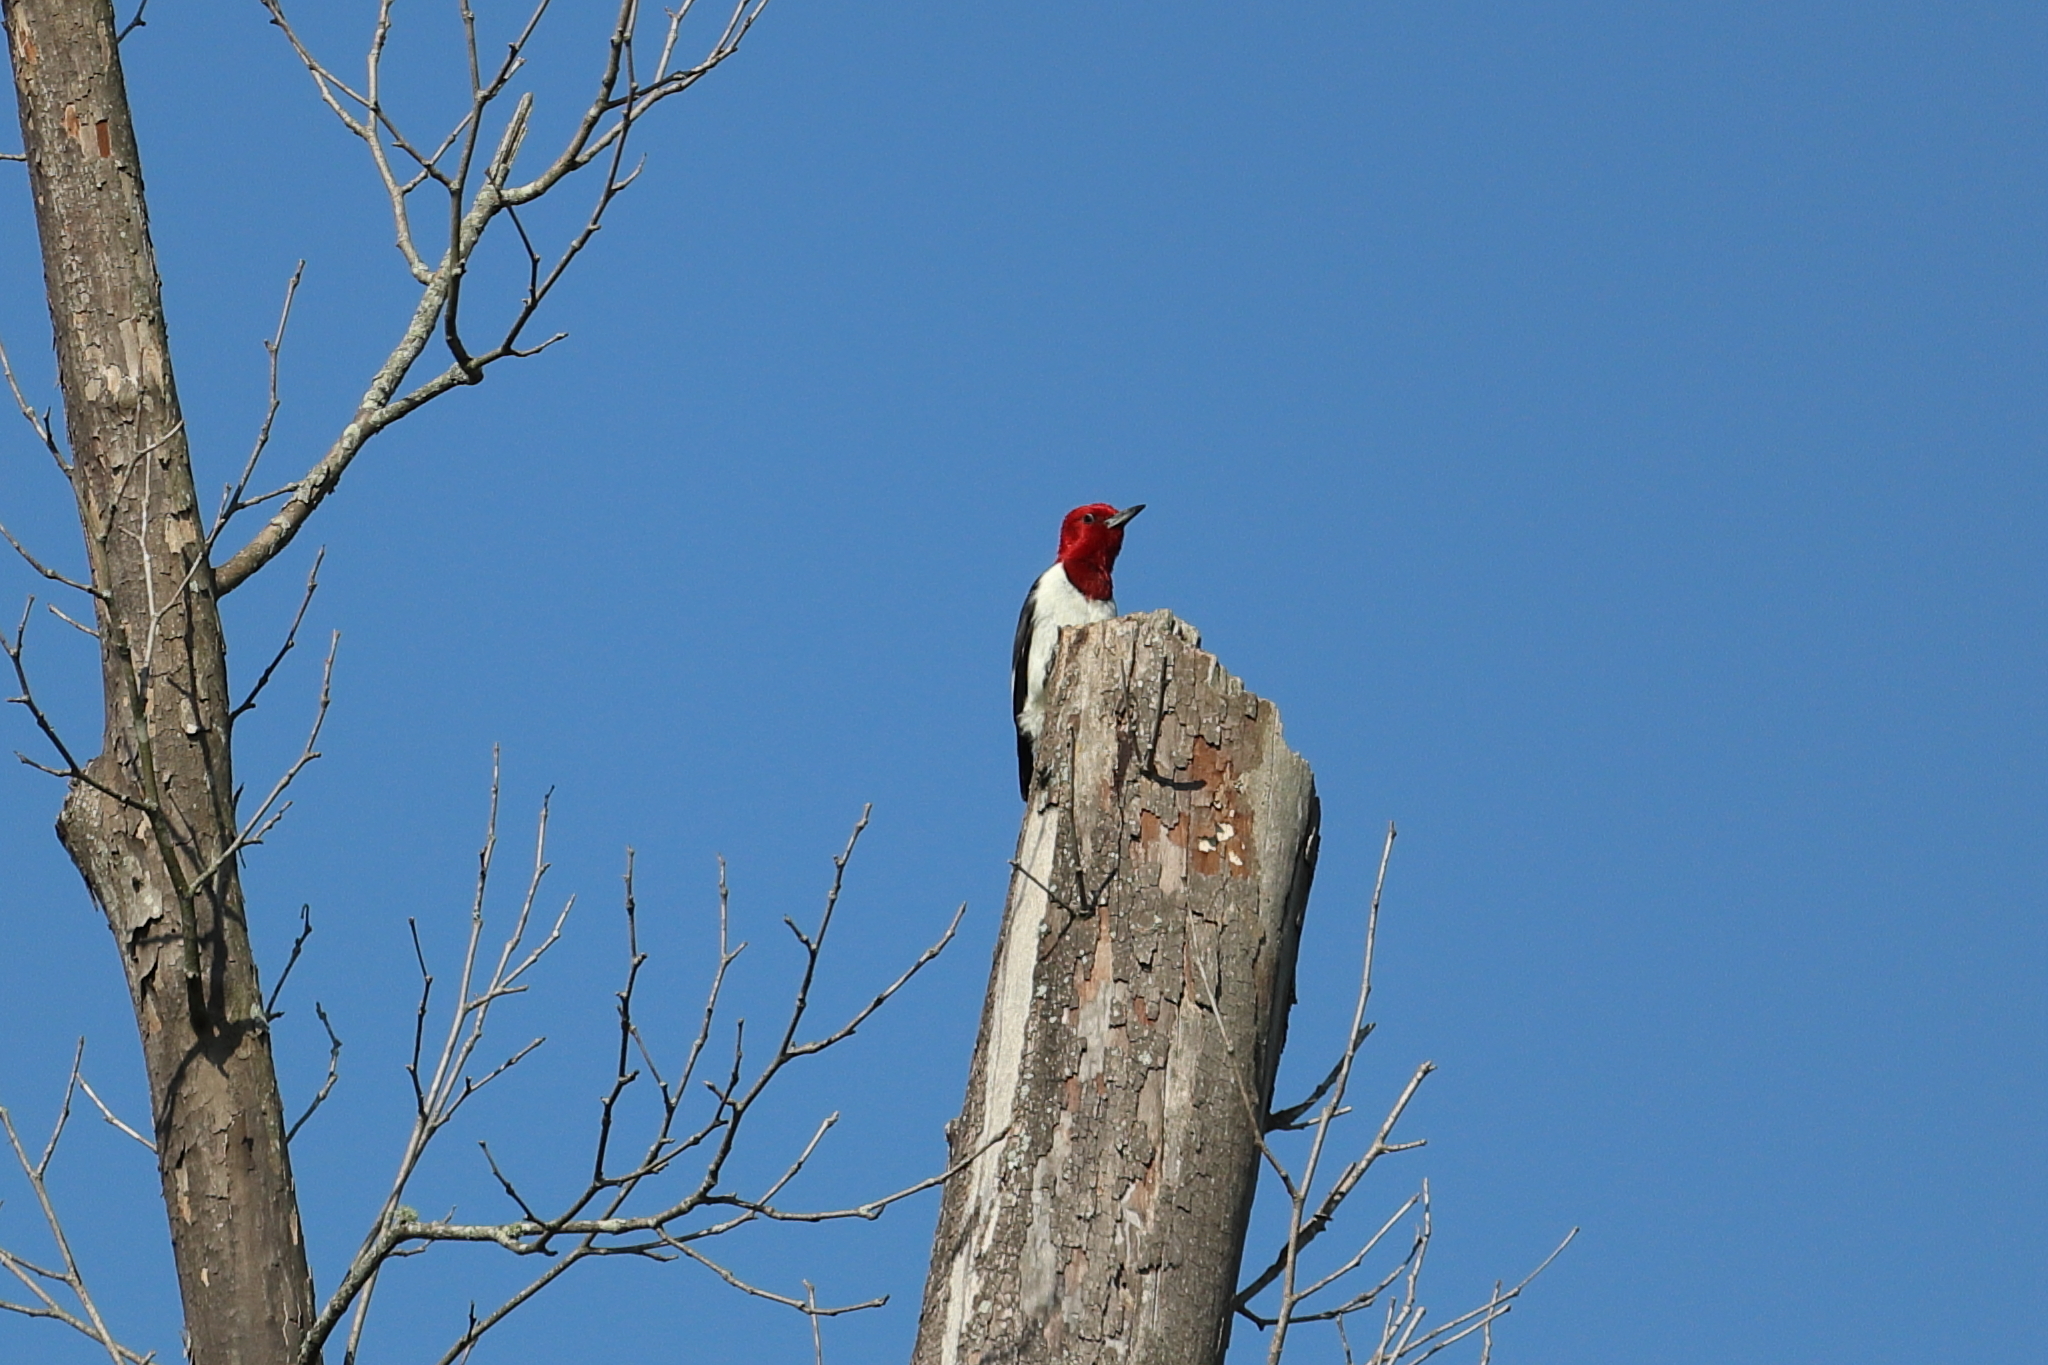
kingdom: Animalia
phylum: Chordata
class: Aves
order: Piciformes
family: Picidae
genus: Melanerpes
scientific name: Melanerpes erythrocephalus
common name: Red-headed woodpecker
